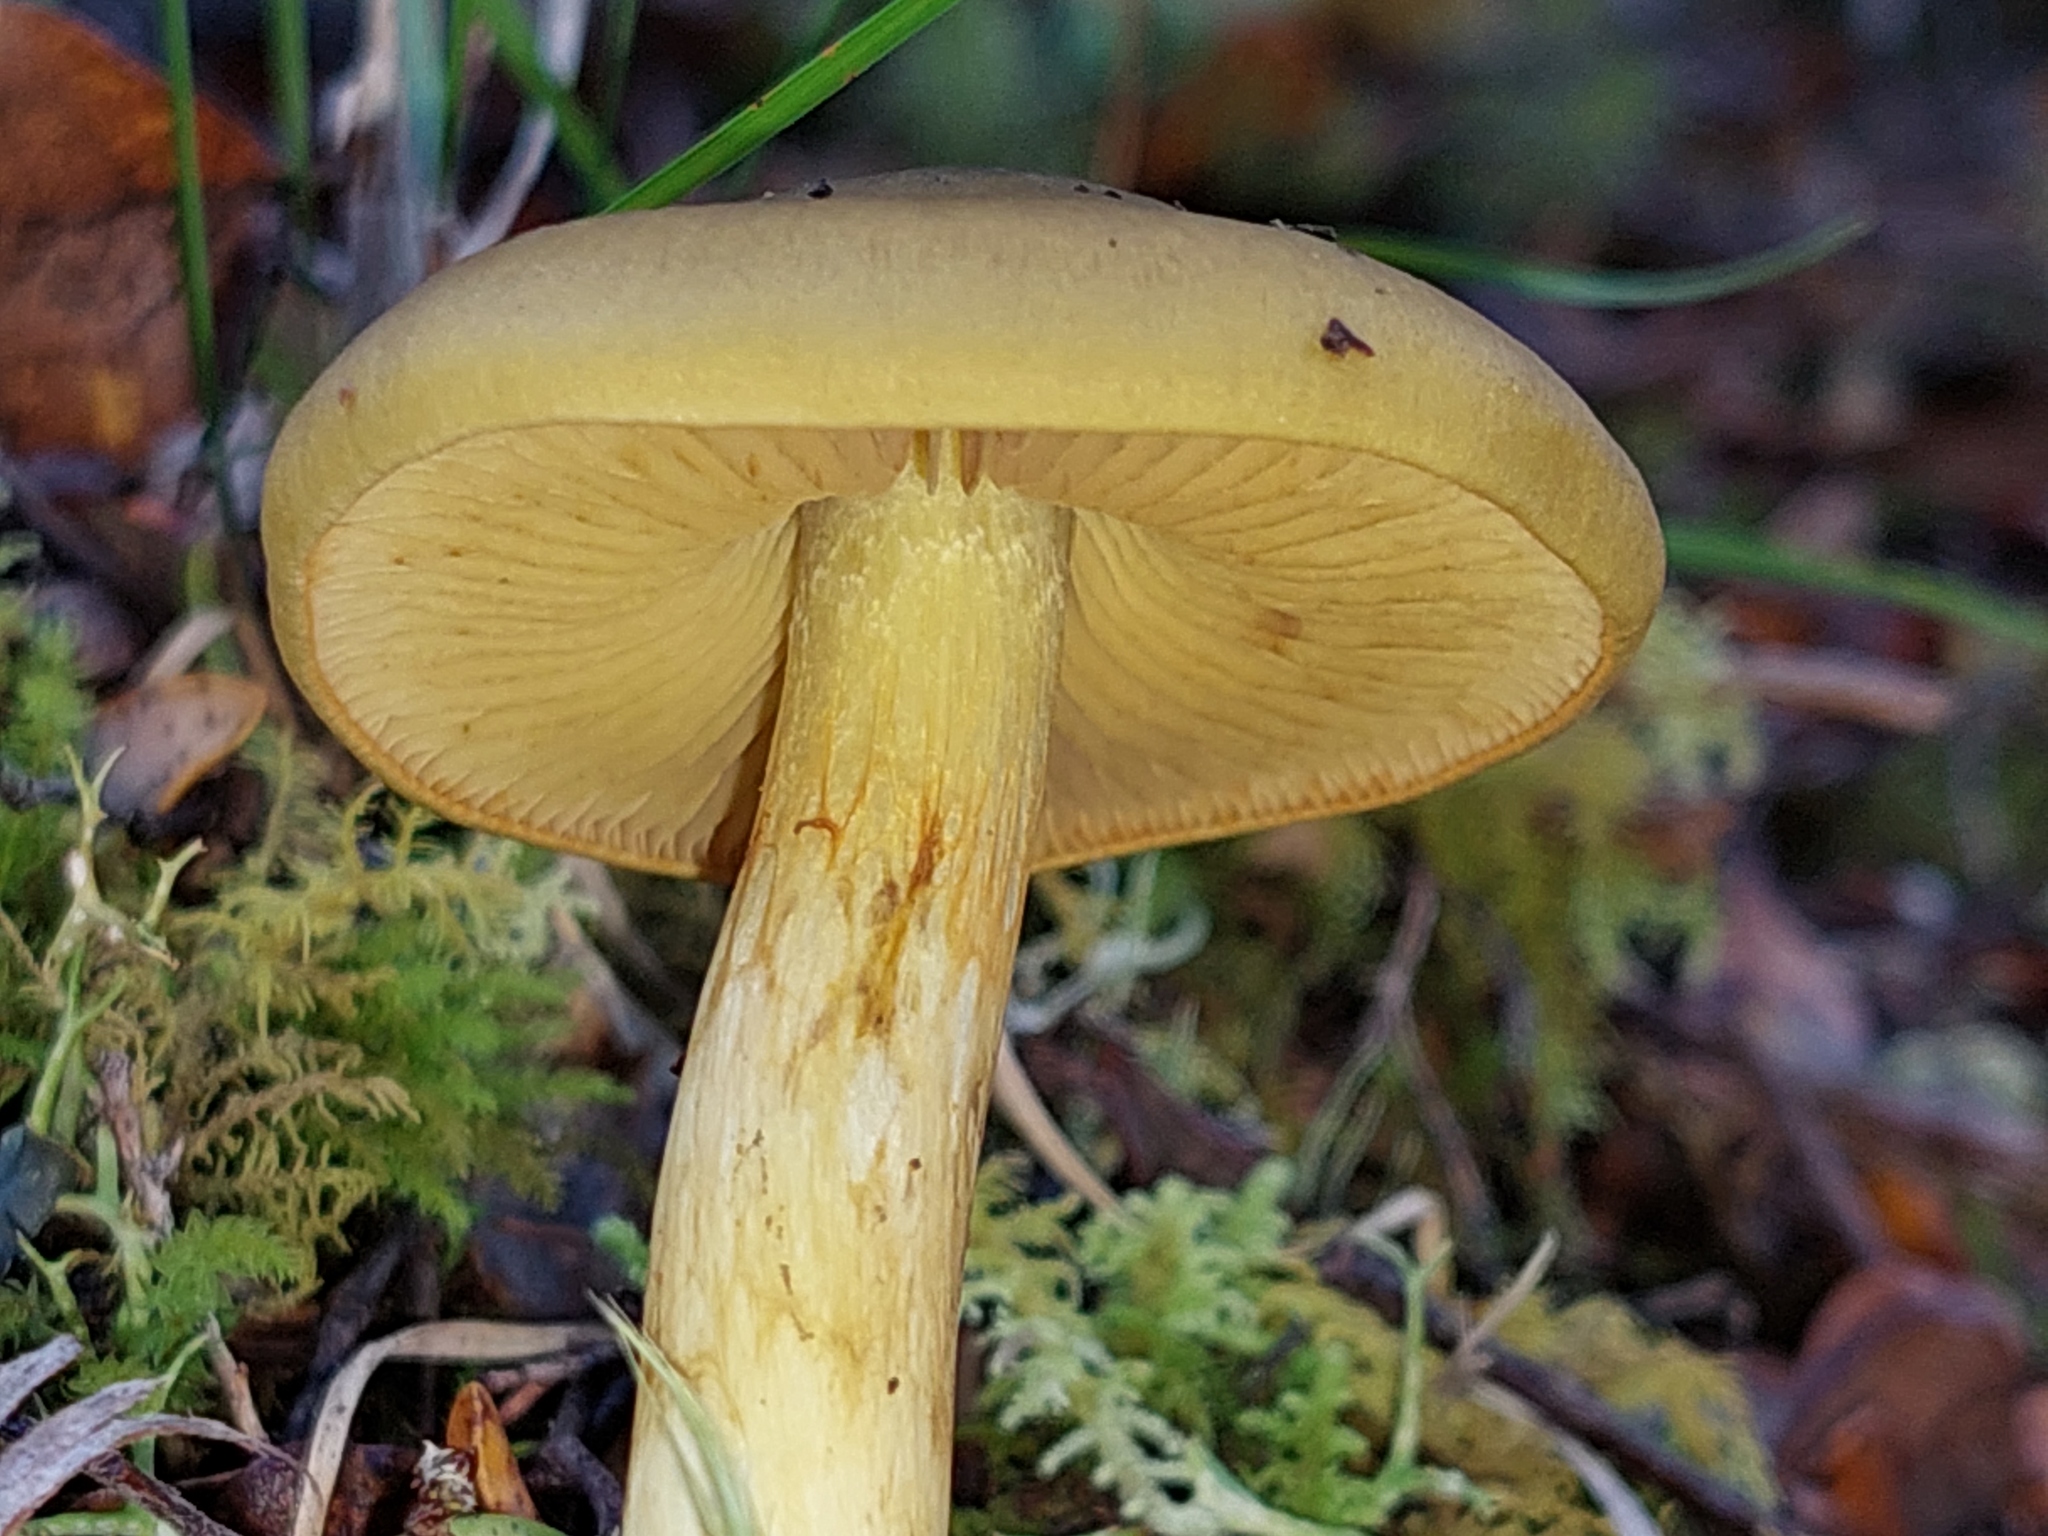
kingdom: Fungi
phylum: Basidiomycota
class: Agaricomycetes
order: Agaricales
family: Cortinariaceae
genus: Cortinarius
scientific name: Cortinarius alienatus
